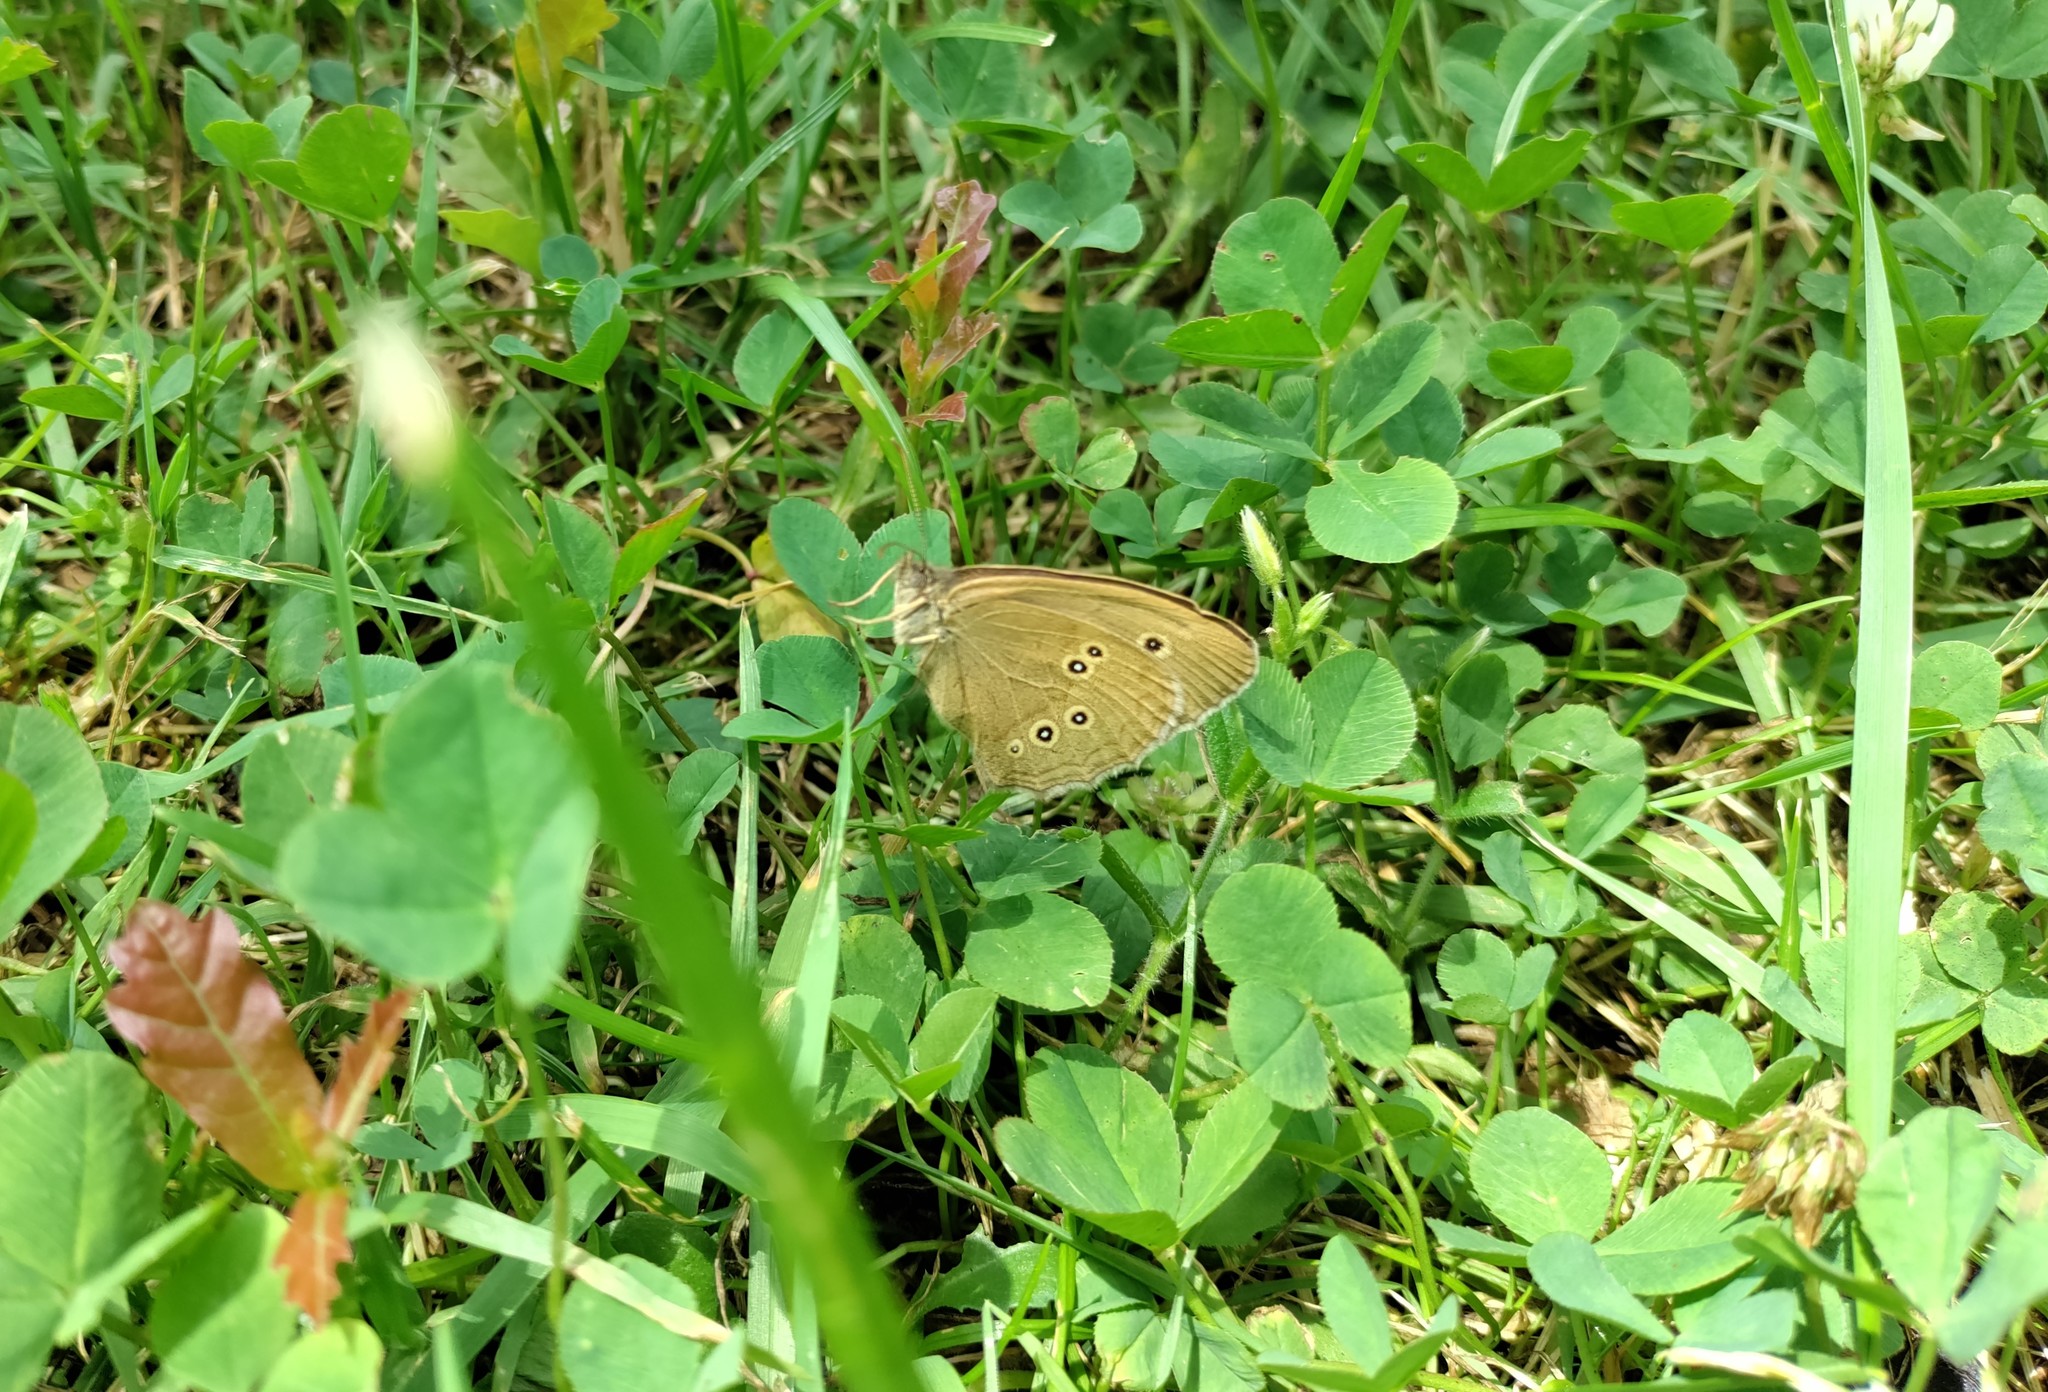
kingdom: Animalia
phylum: Arthropoda
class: Insecta
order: Lepidoptera
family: Nymphalidae
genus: Aphantopus
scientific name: Aphantopus hyperantus
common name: Ringlet
